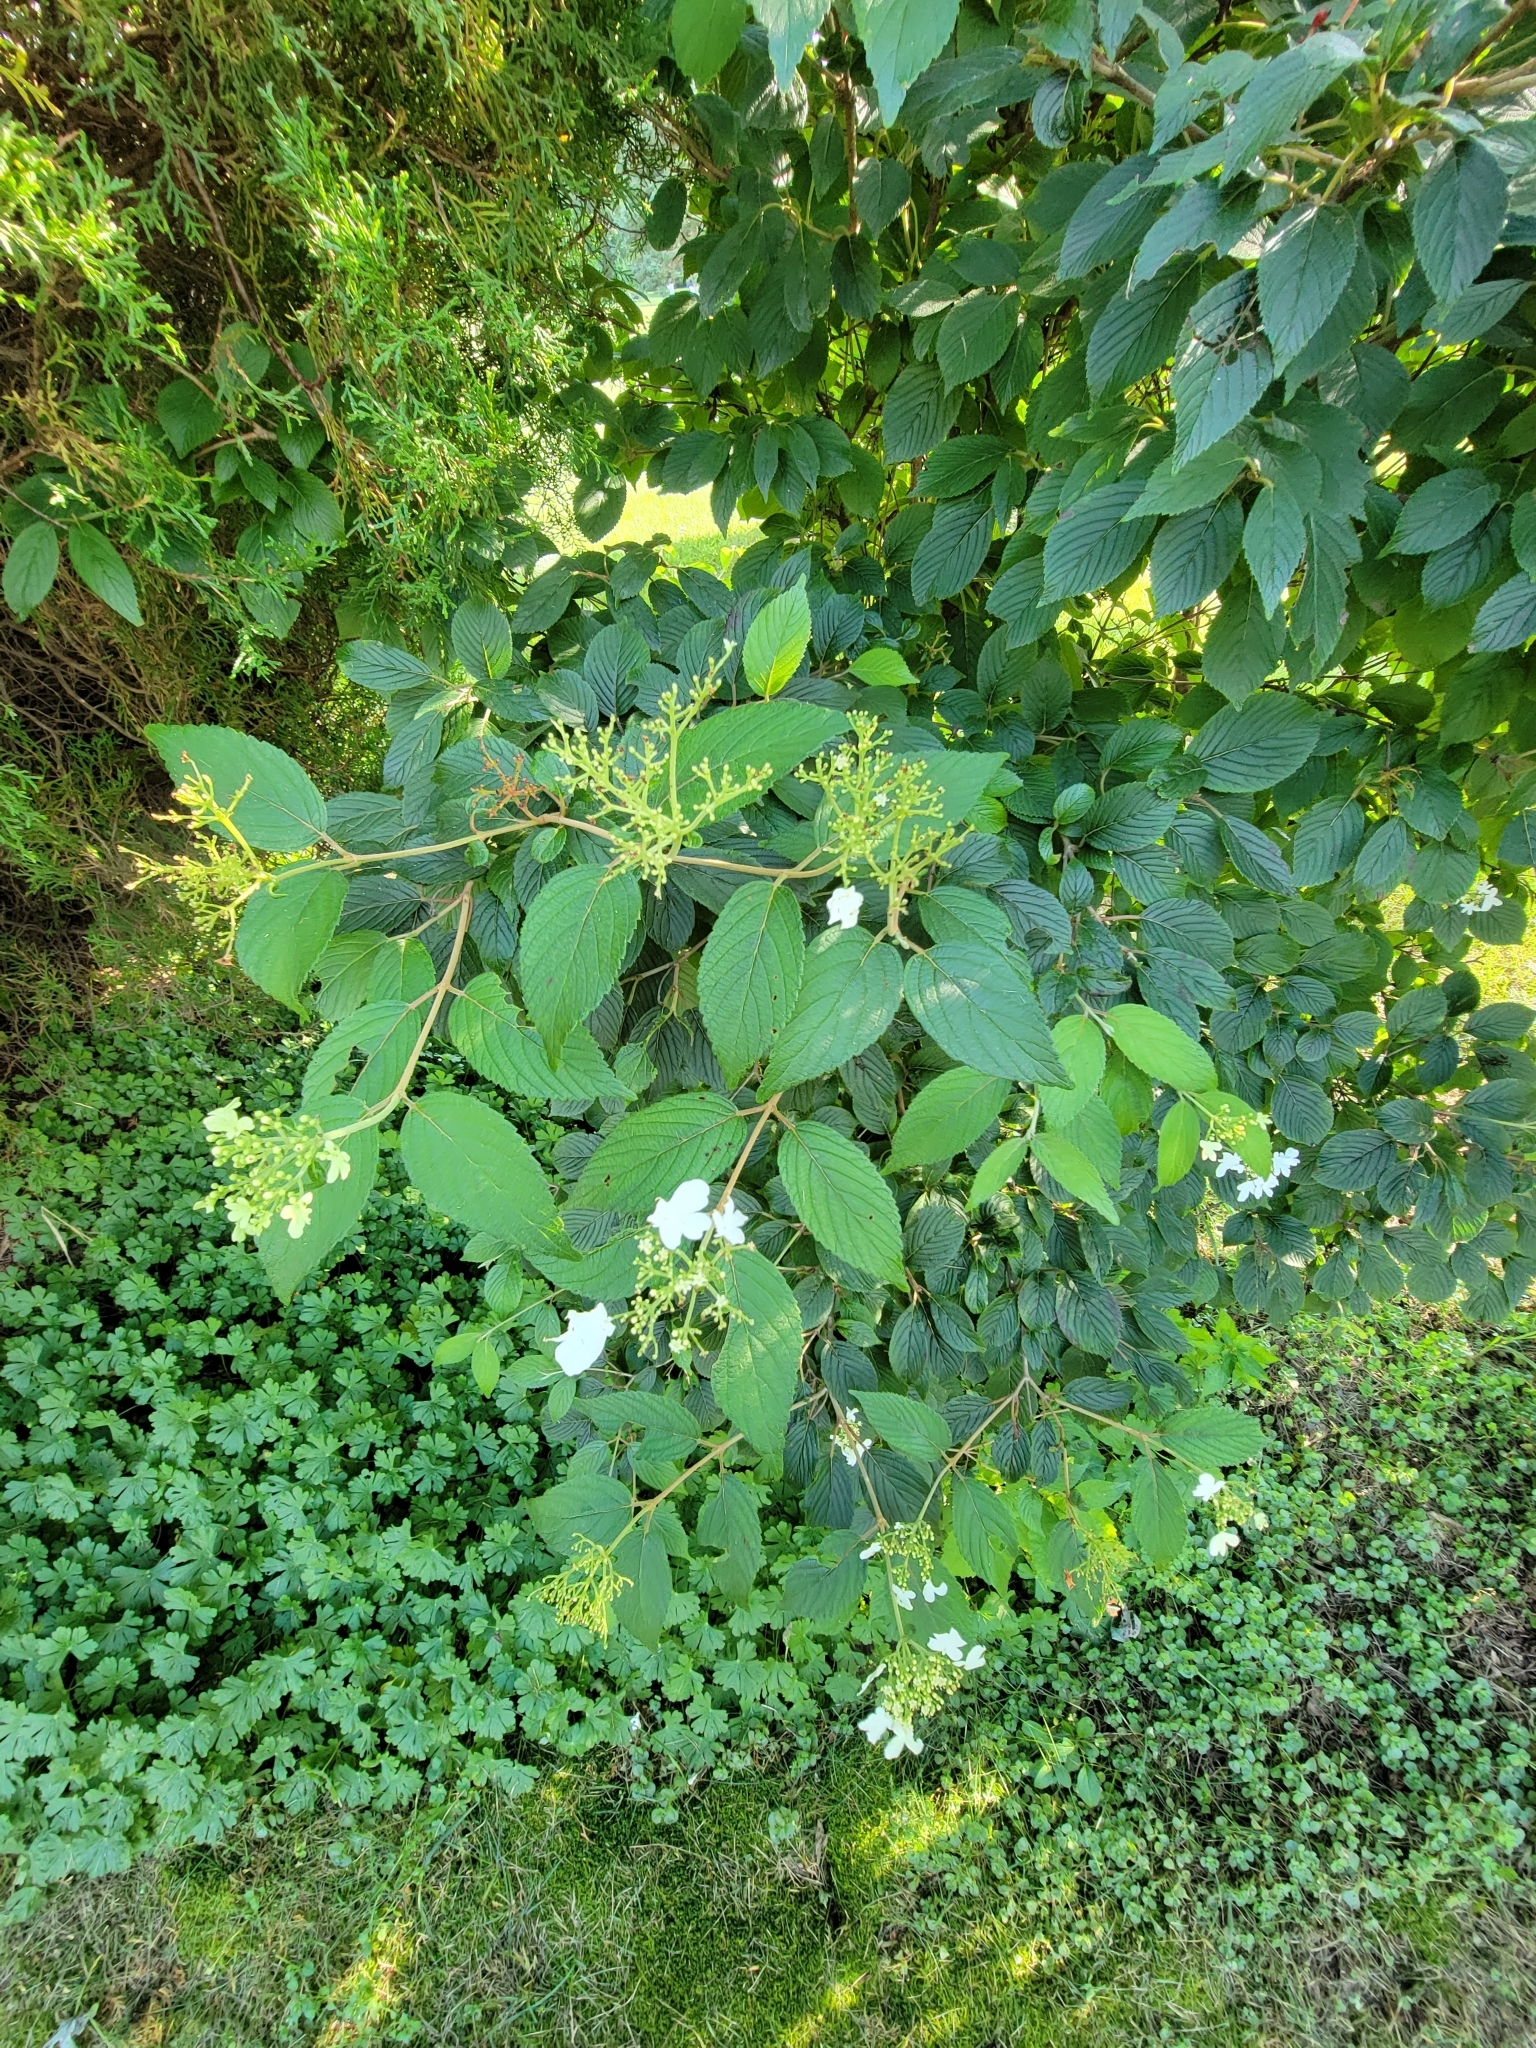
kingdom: Plantae
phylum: Tracheophyta
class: Magnoliopsida
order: Dipsacales
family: Viburnaceae
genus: Viburnum
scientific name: Viburnum plicatum
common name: Japanese snowball
